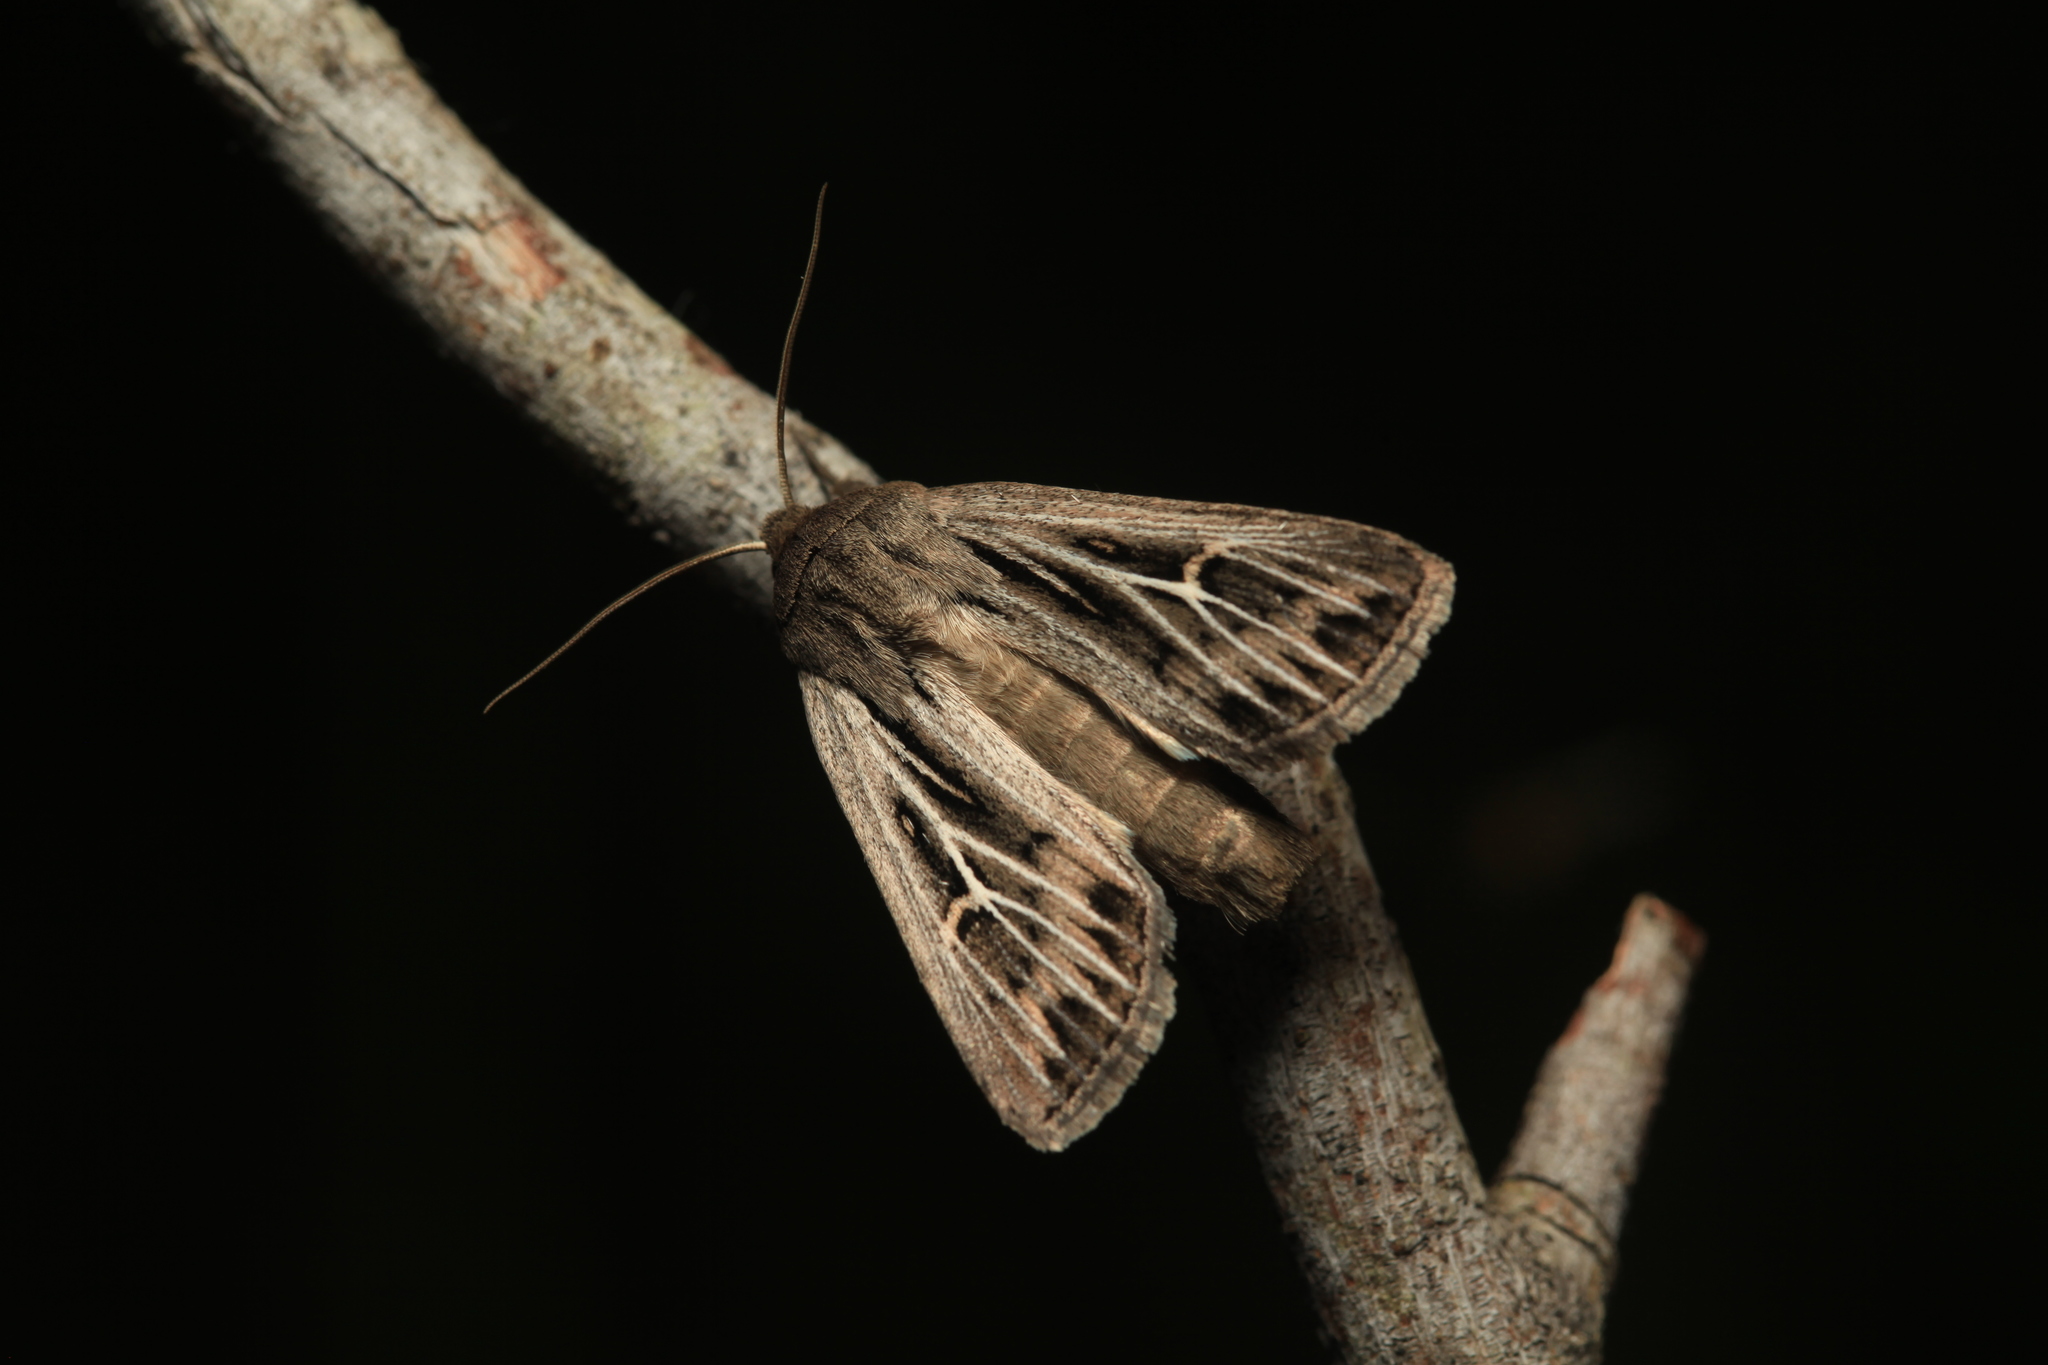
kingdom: Animalia
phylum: Arthropoda
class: Insecta
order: Lepidoptera
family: Noctuidae
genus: Mythimna
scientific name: Mythimna velutina
